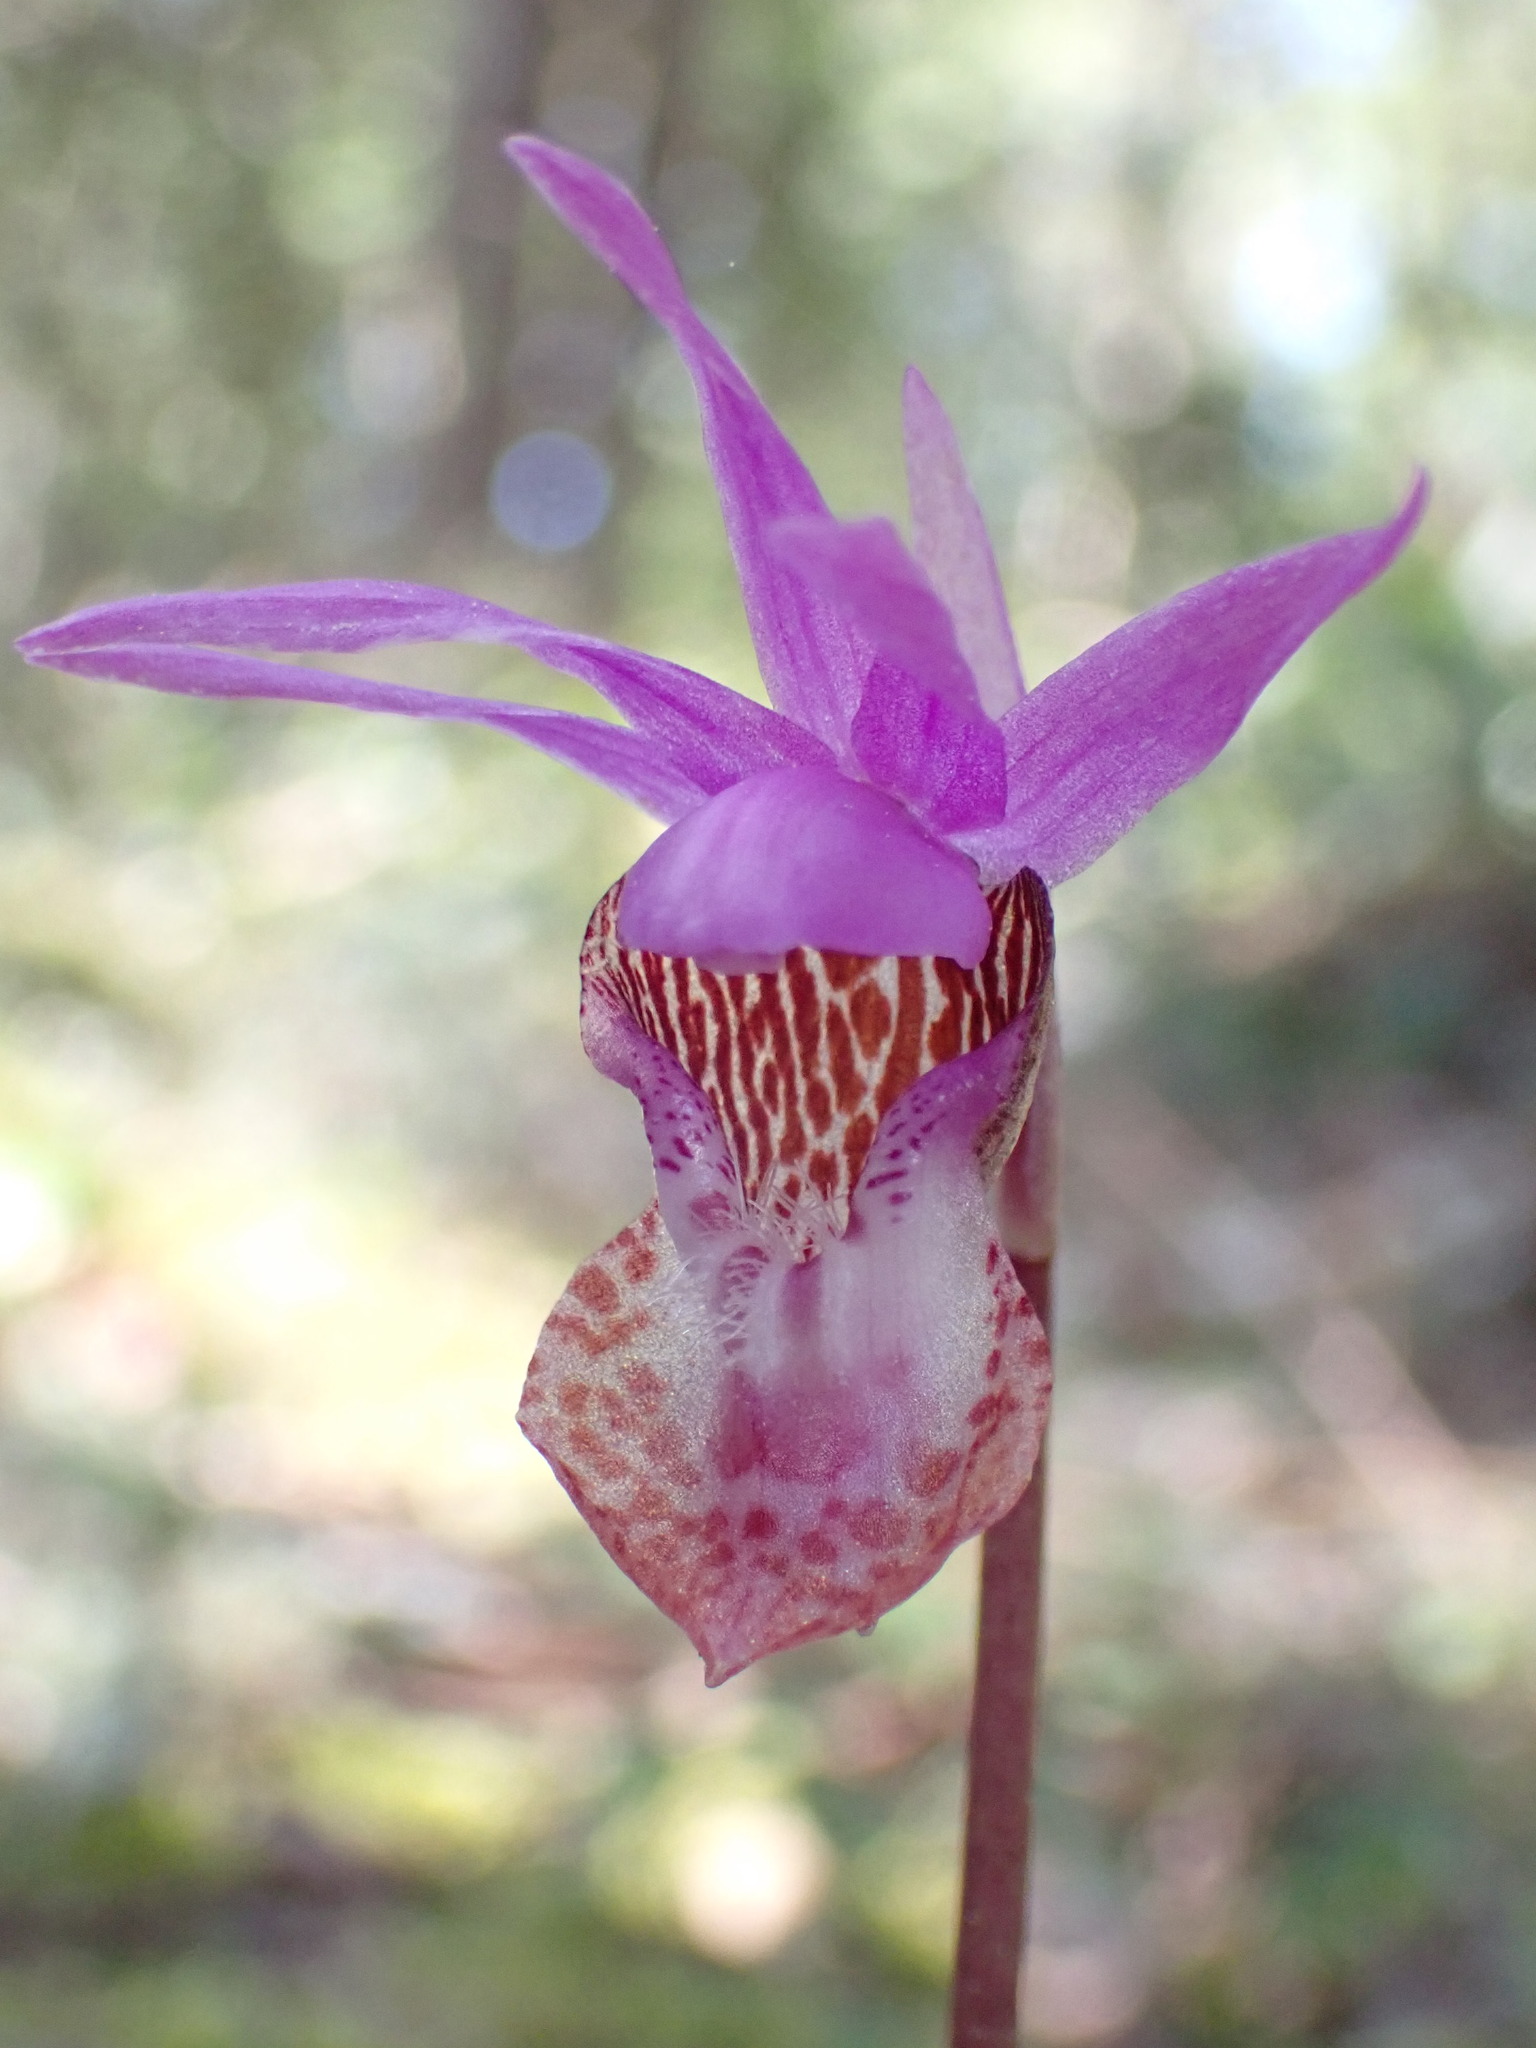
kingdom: Plantae
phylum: Tracheophyta
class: Liliopsida
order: Asparagales
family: Orchidaceae
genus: Calypso
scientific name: Calypso bulbosa
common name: Calypso
